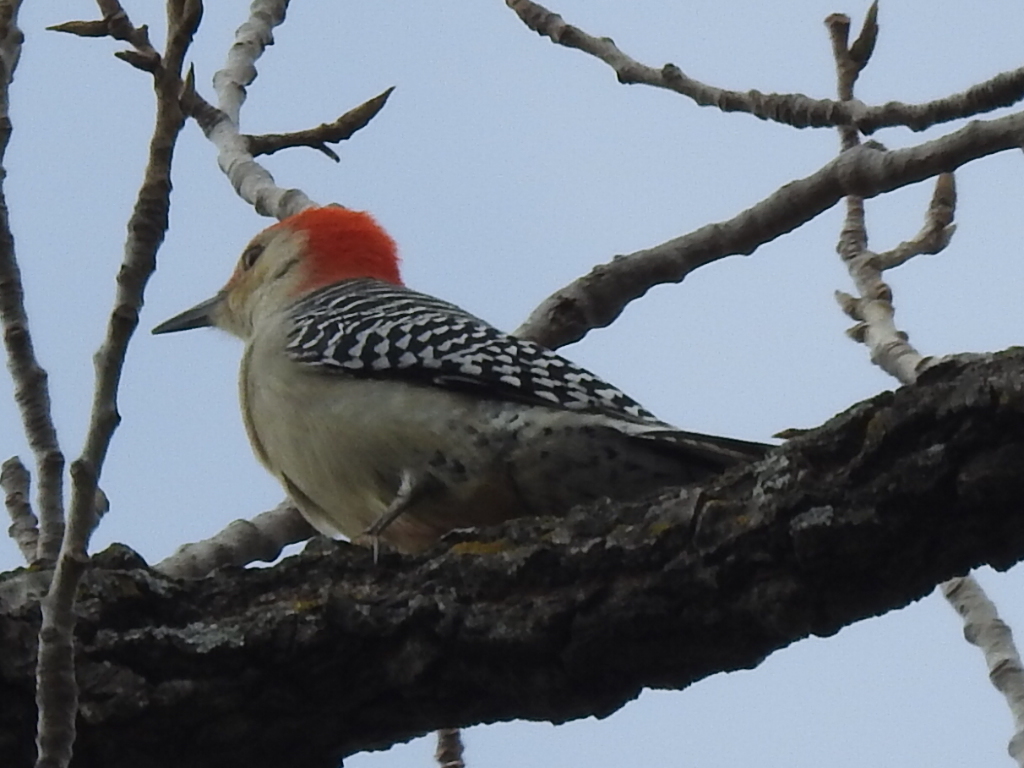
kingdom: Animalia
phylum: Chordata
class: Aves
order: Piciformes
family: Picidae
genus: Melanerpes
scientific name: Melanerpes carolinus
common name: Red-bellied woodpecker
